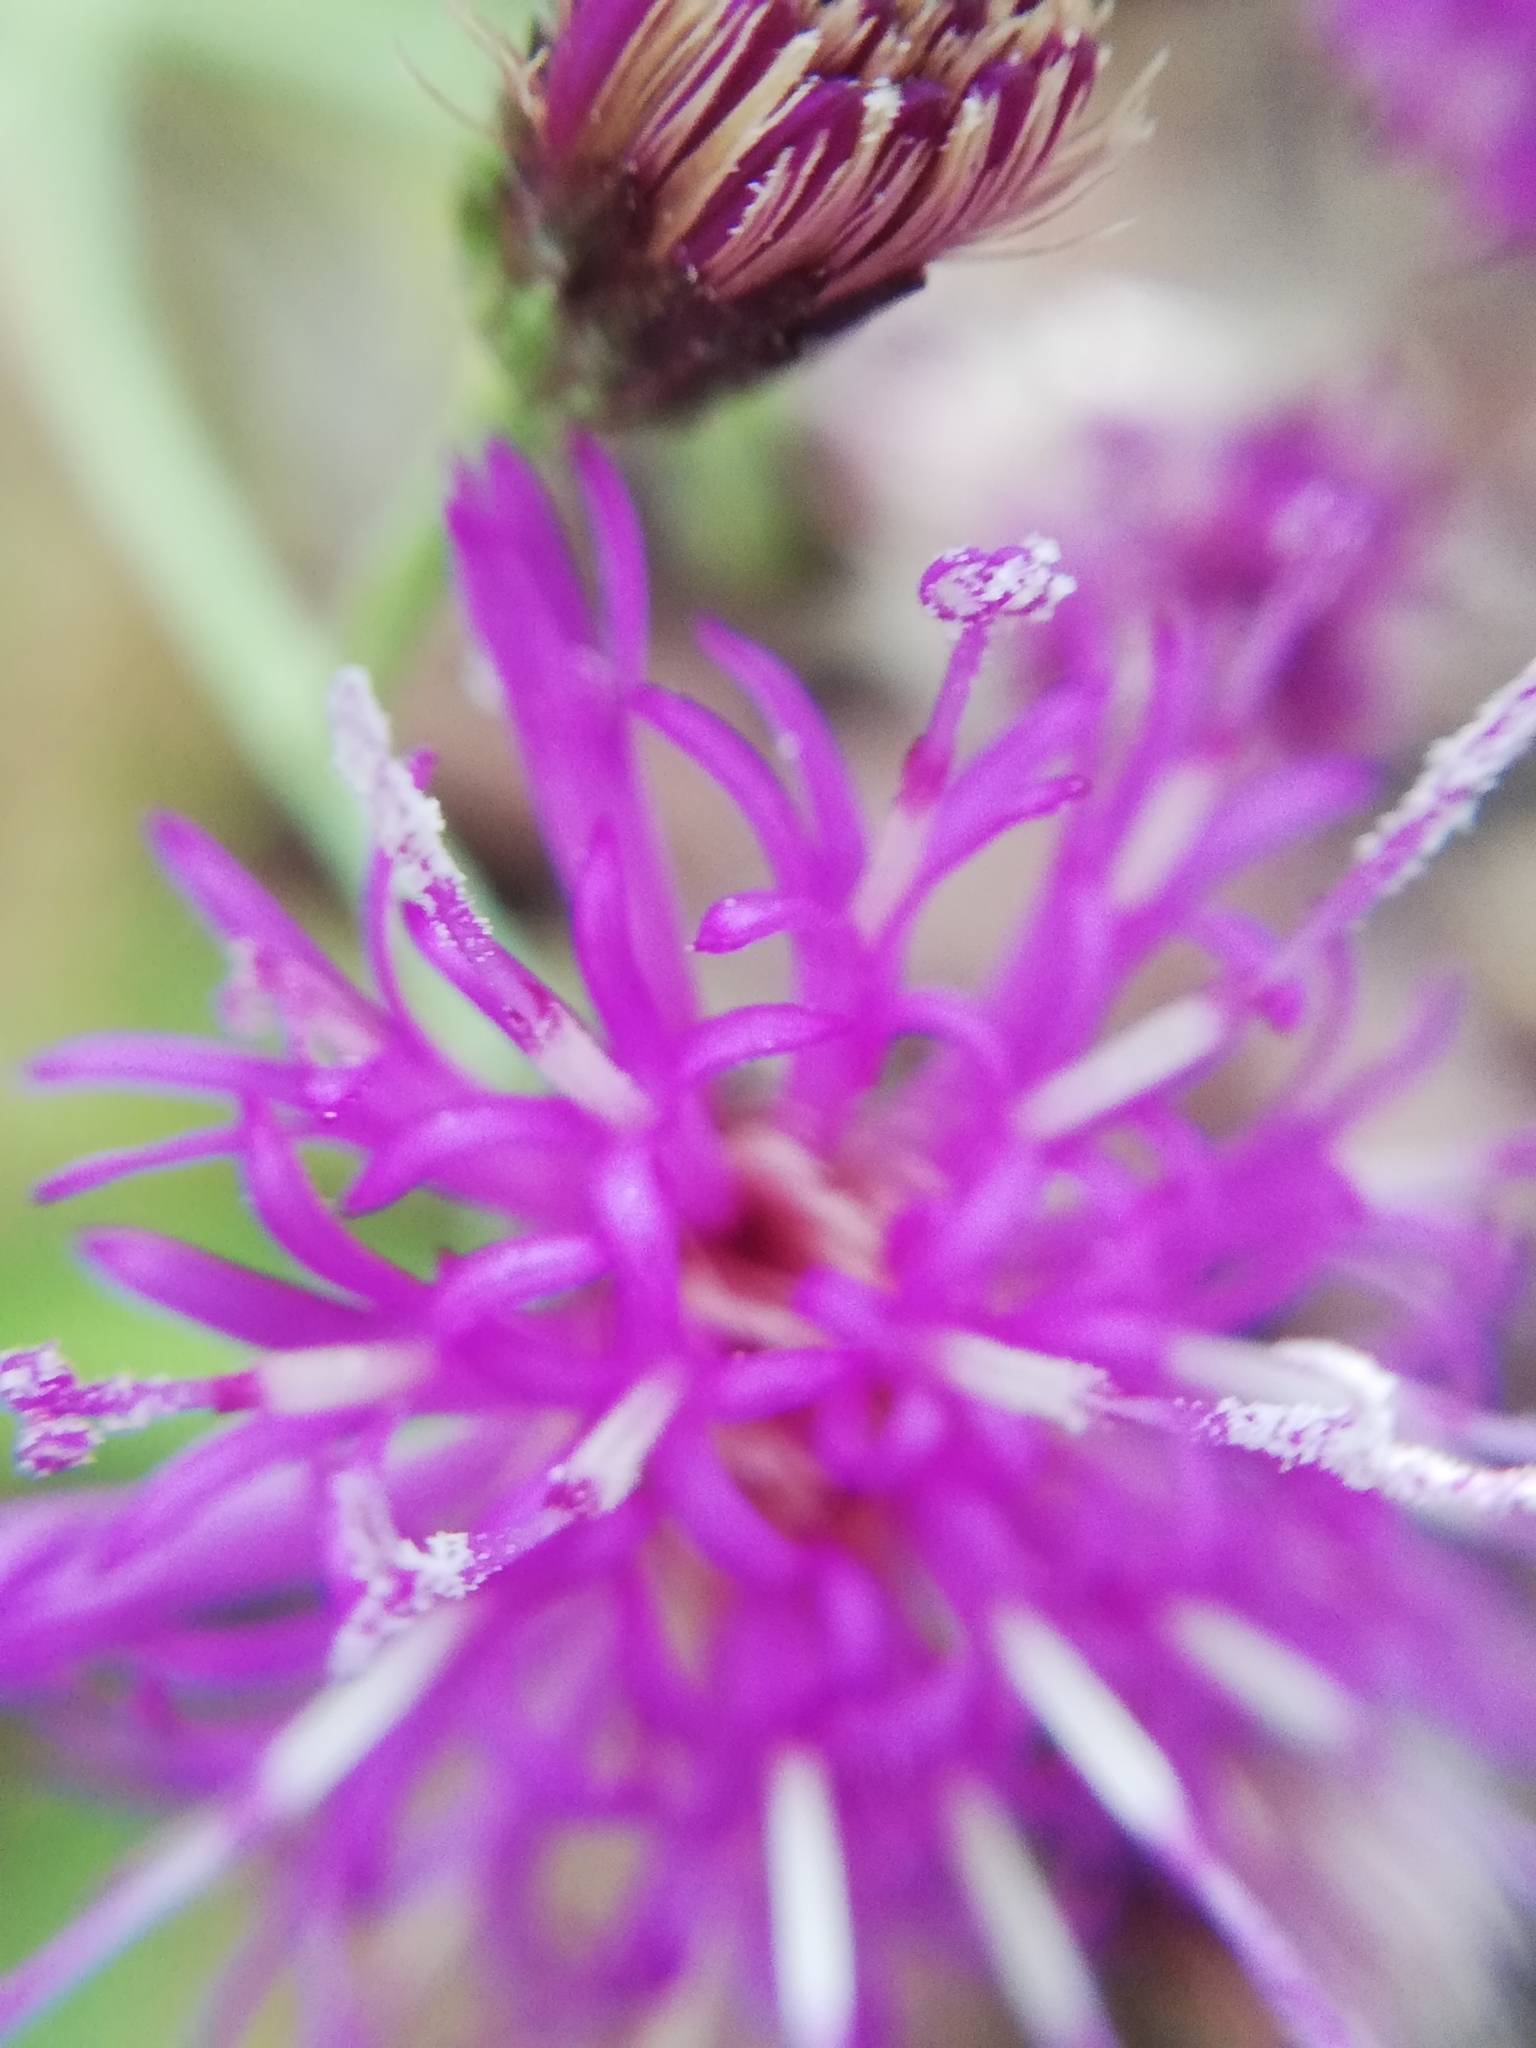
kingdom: Plantae
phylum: Tracheophyta
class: Magnoliopsida
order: Asterales
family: Asteraceae
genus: Vernonia
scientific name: Vernonia greggii
